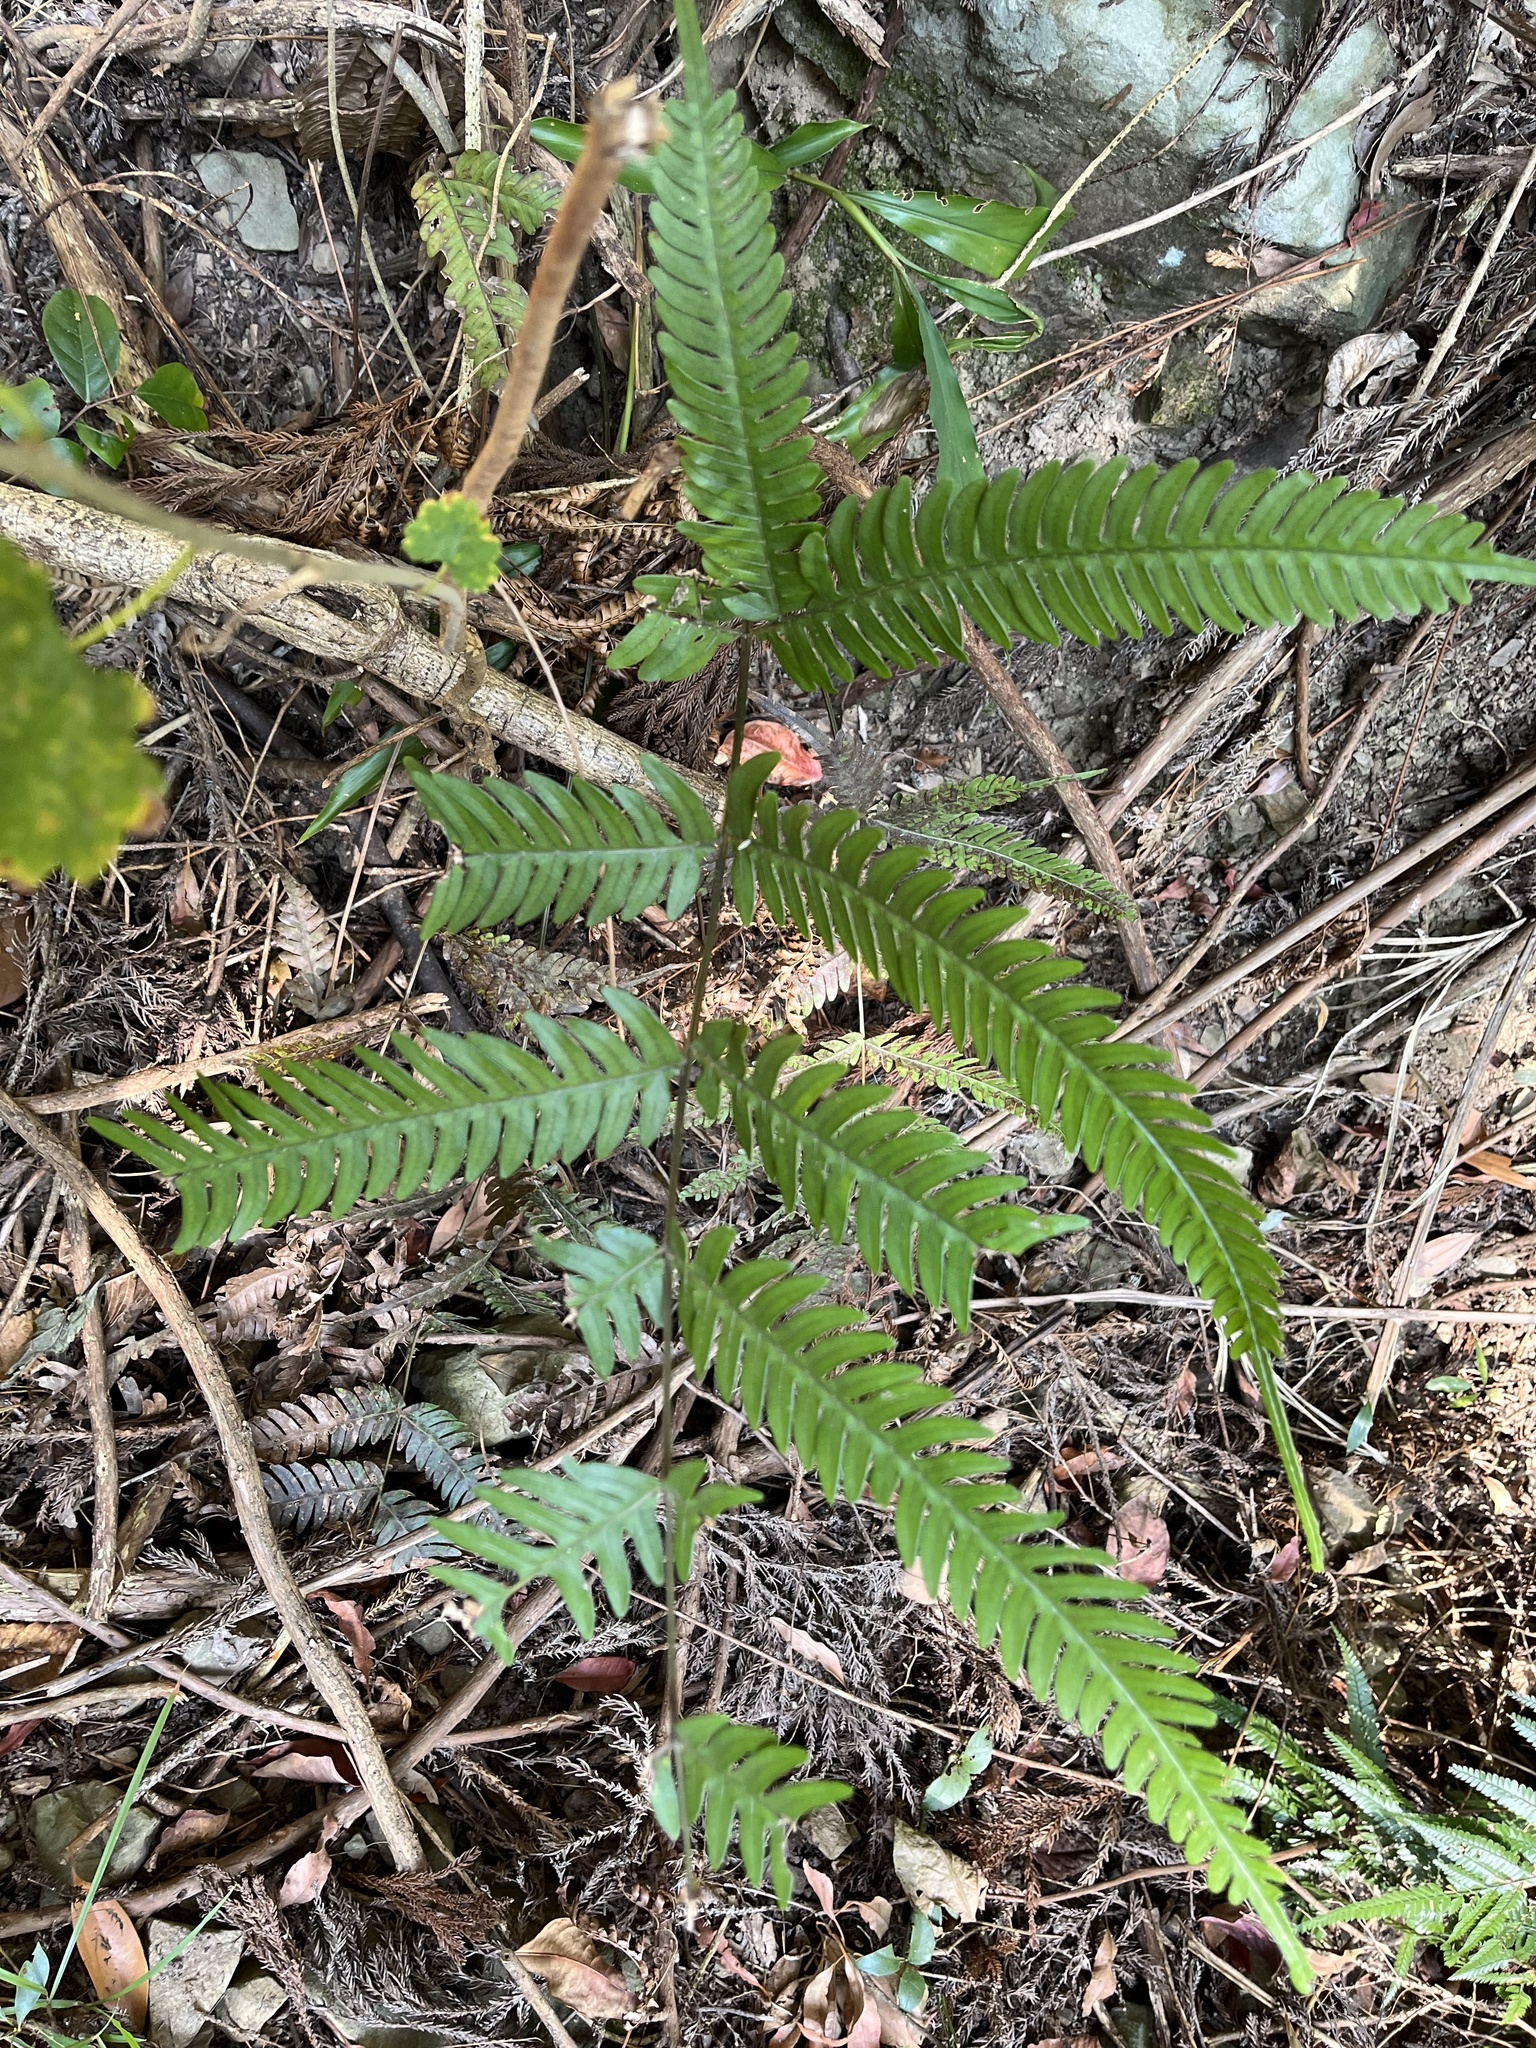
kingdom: Plantae
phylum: Tracheophyta
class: Polypodiopsida
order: Polypodiales
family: Pteridaceae
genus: Pteris
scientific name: Pteris arisanensis
